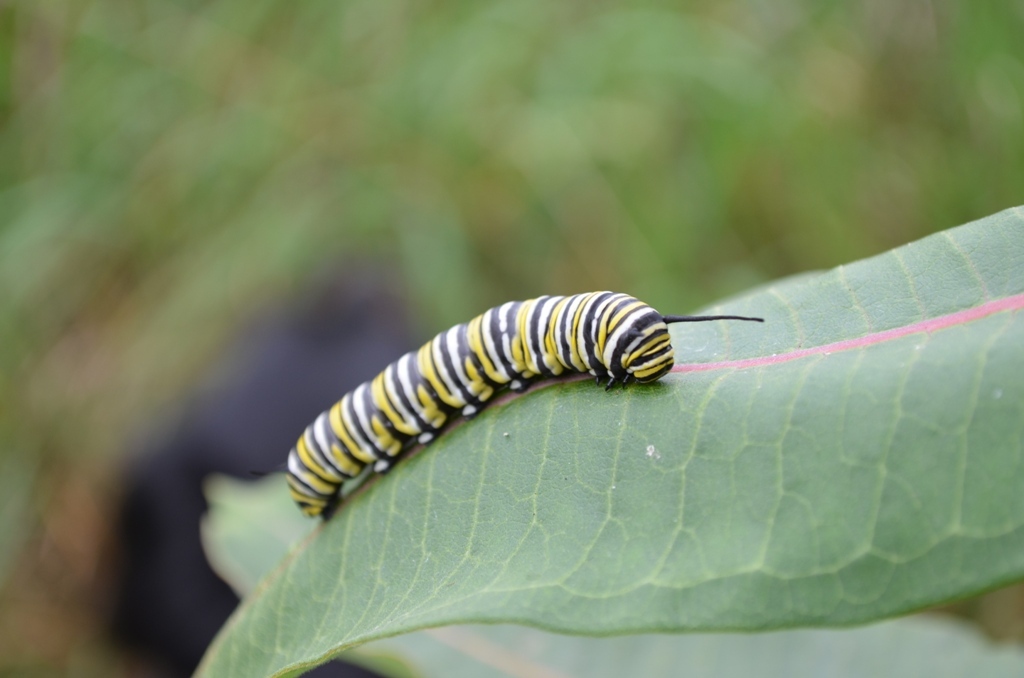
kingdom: Animalia
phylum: Arthropoda
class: Insecta
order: Lepidoptera
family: Nymphalidae
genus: Danaus
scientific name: Danaus plexippus
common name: Monarch
